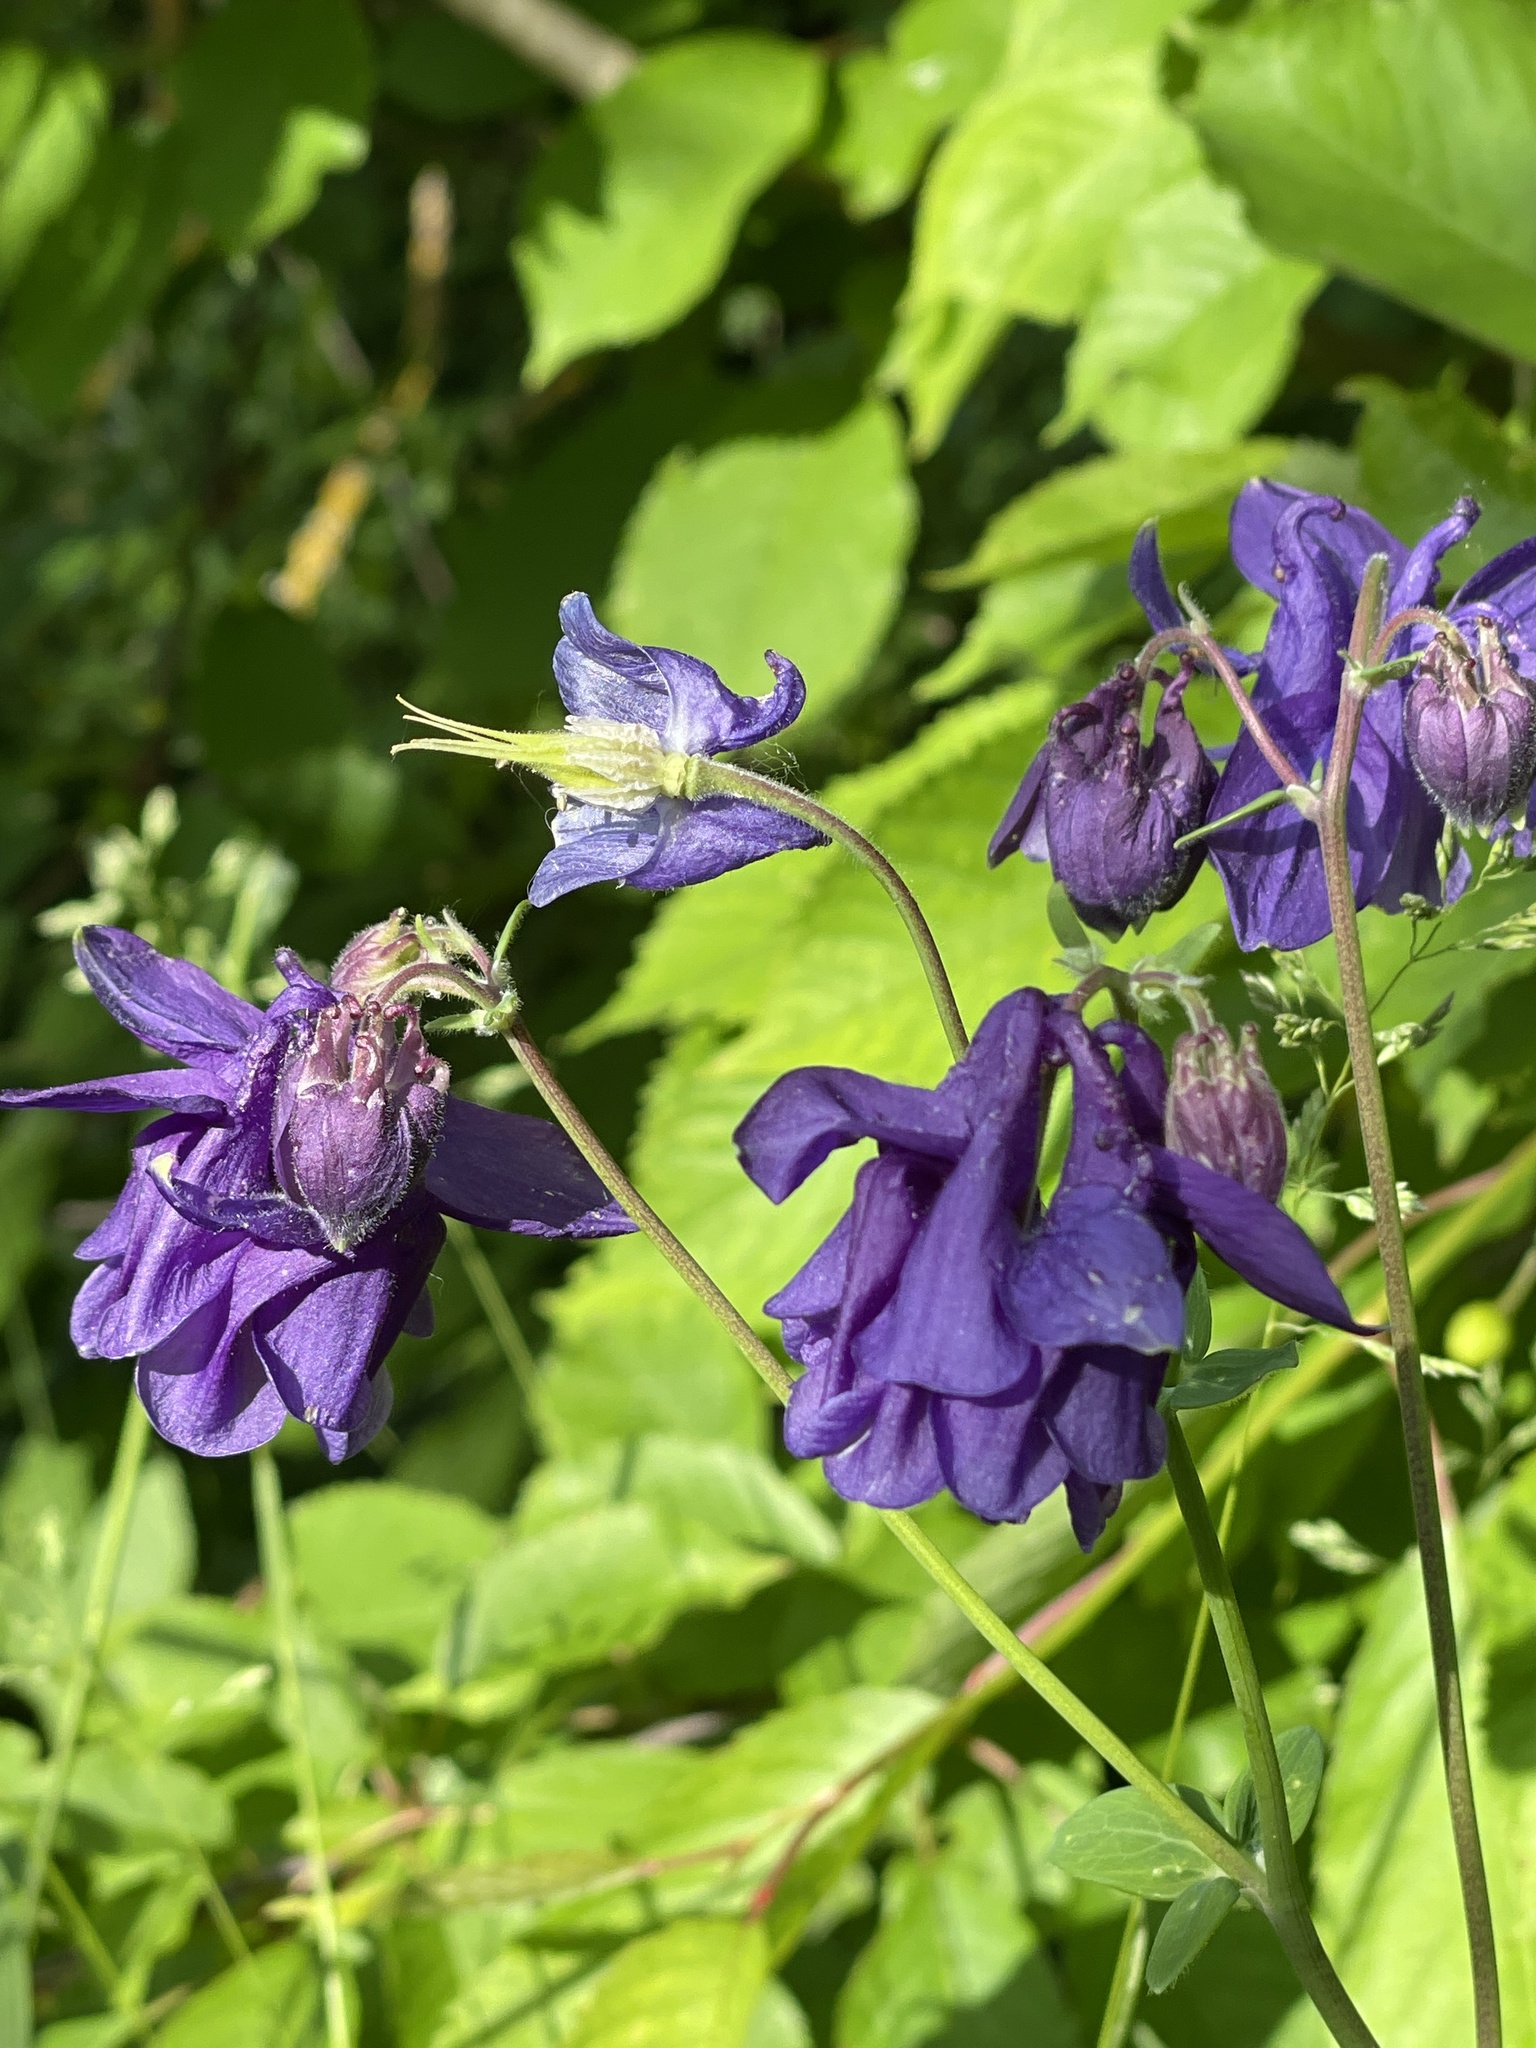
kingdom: Plantae
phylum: Tracheophyta
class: Magnoliopsida
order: Ranunculales
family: Ranunculaceae
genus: Aquilegia
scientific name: Aquilegia vulgaris
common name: Columbine
